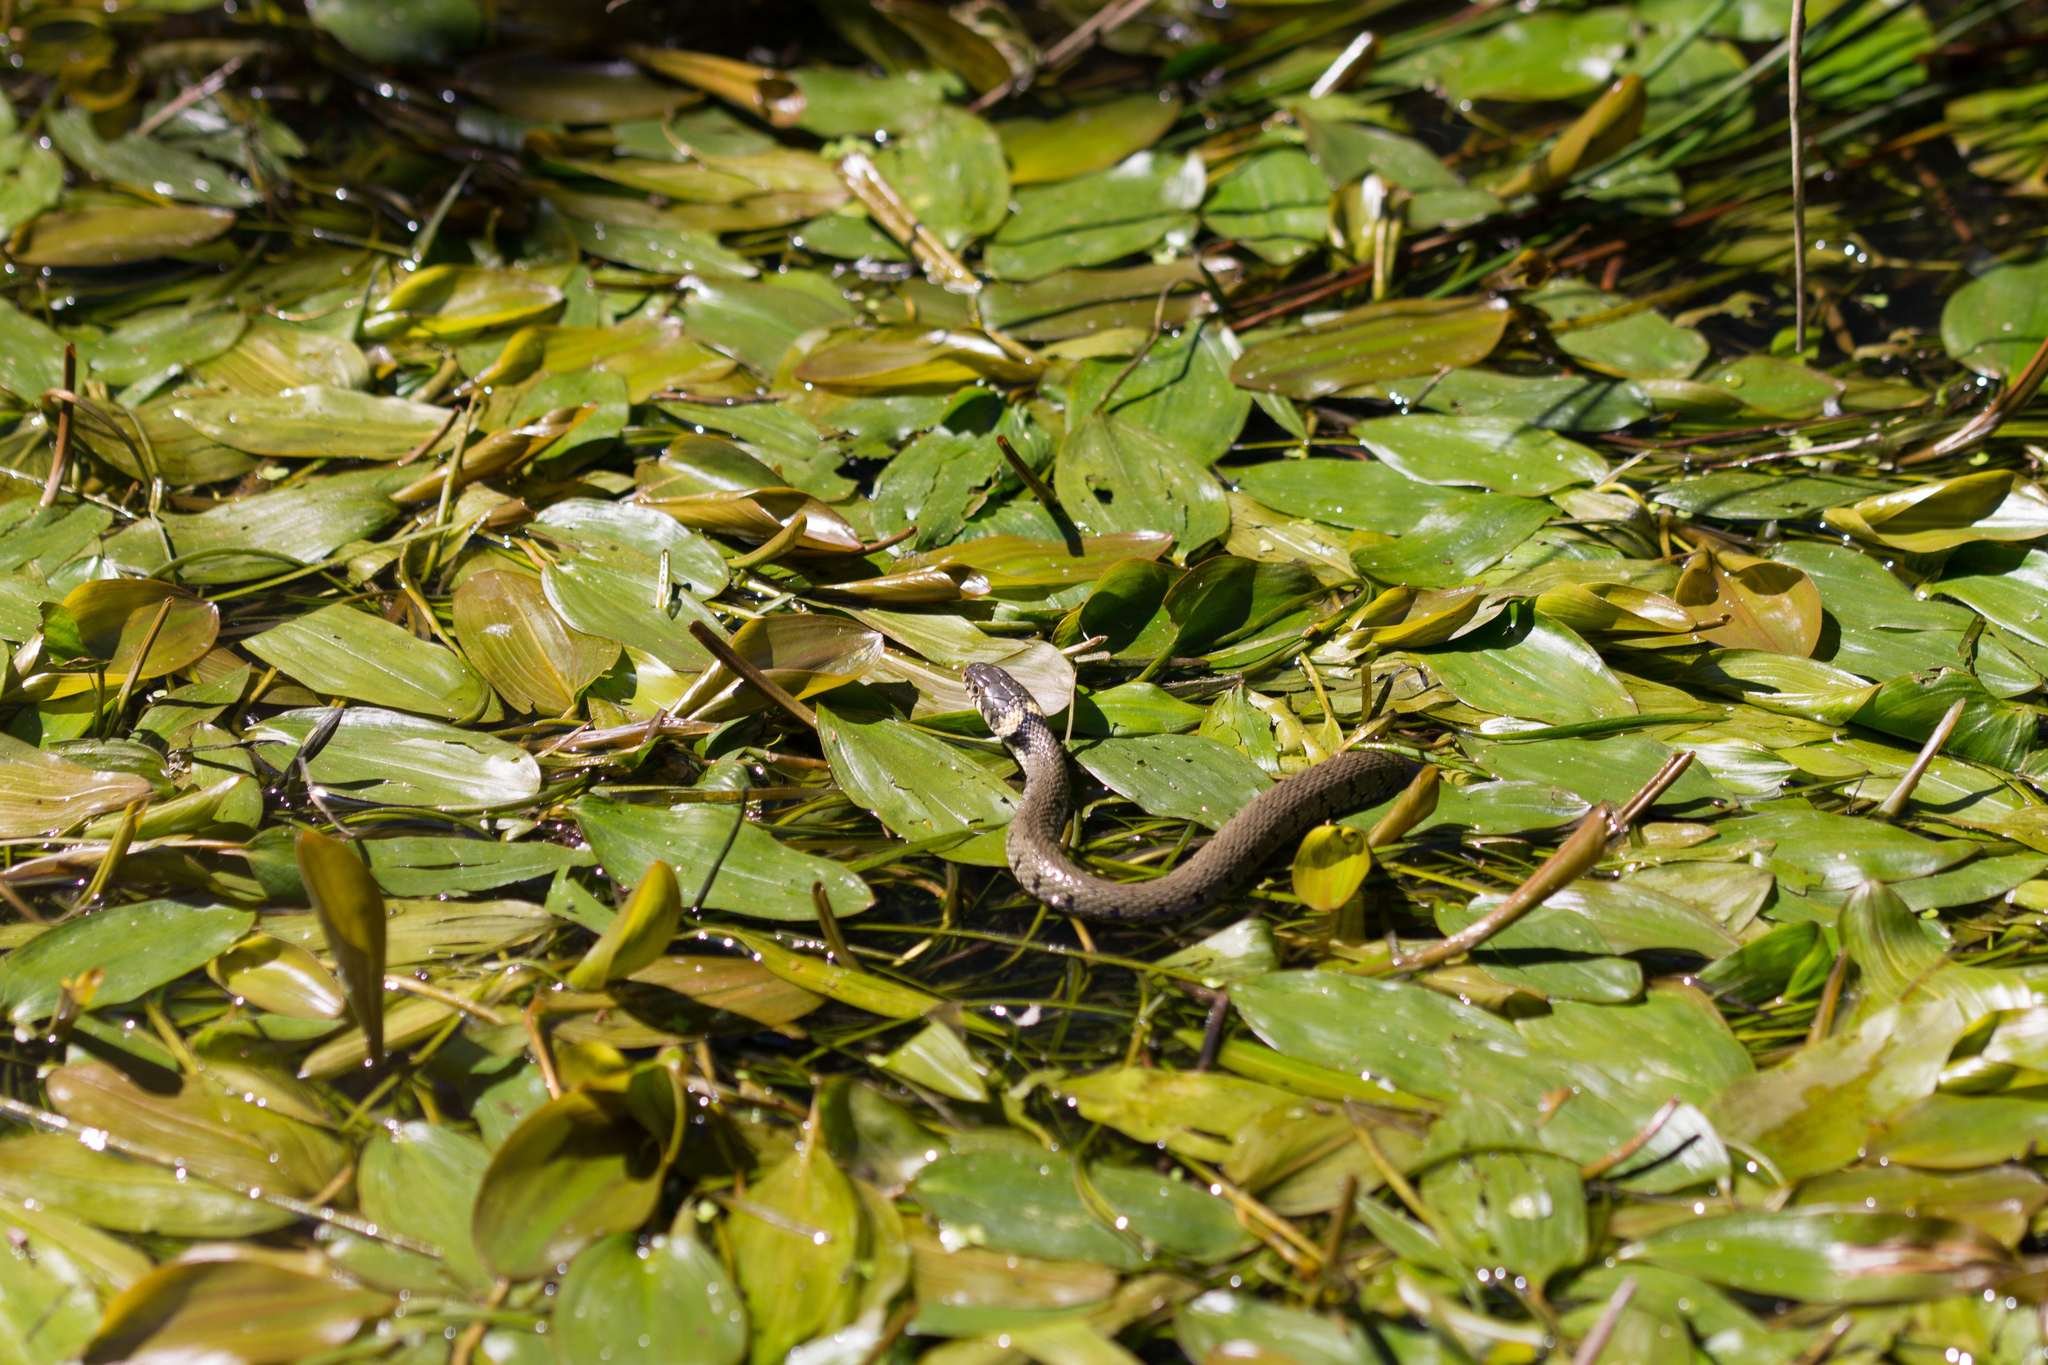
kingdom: Animalia
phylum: Chordata
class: Squamata
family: Colubridae
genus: Natrix
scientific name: Natrix helvetica
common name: Banded grass snake
